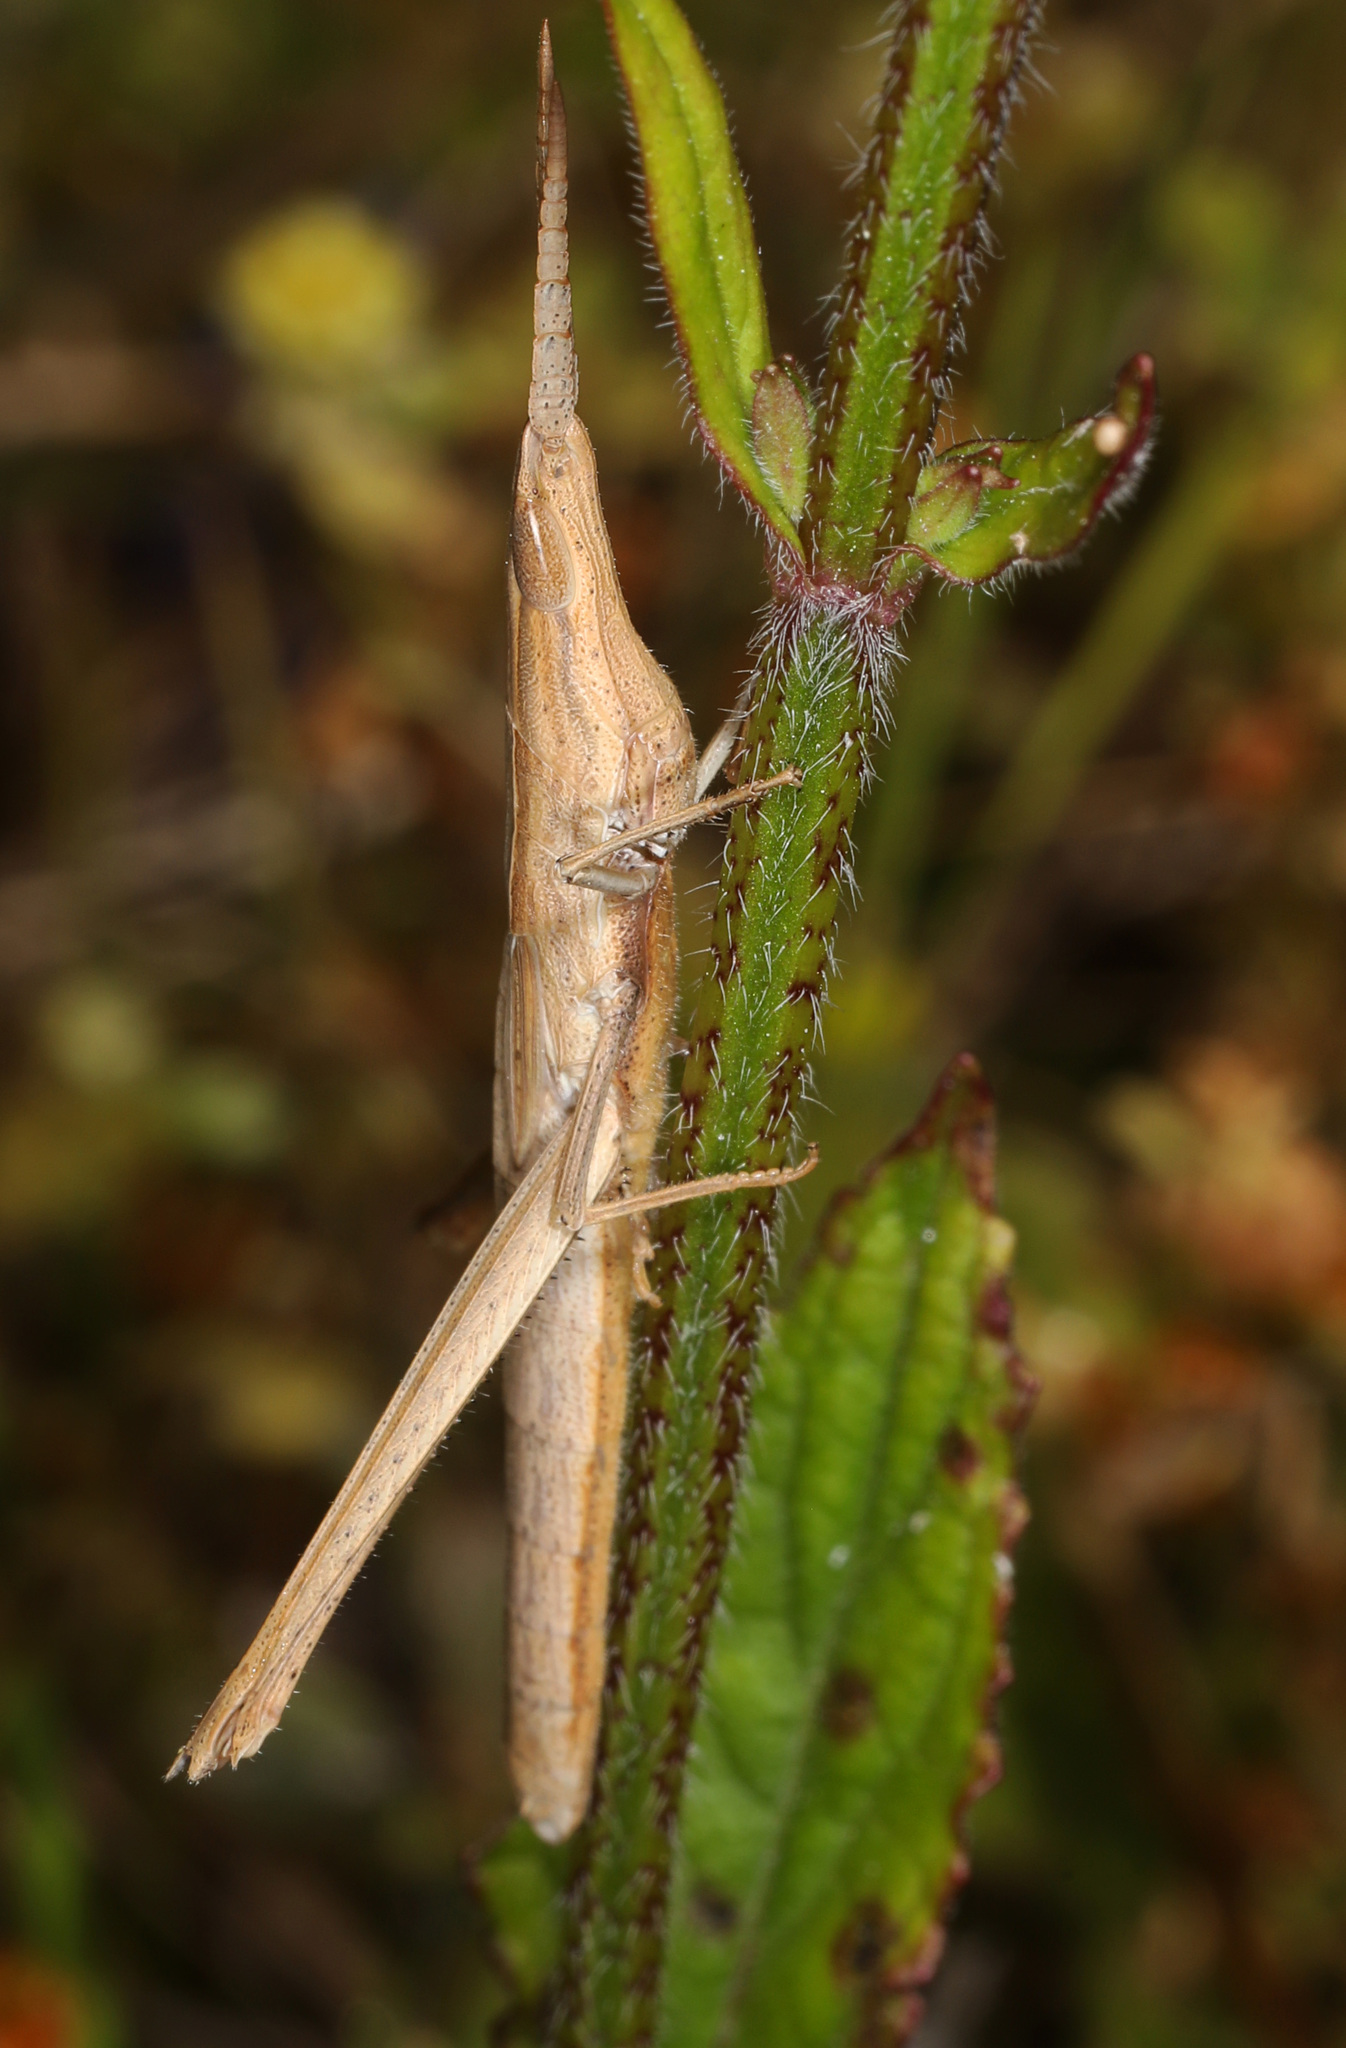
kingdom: Animalia
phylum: Arthropoda
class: Insecta
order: Orthoptera
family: Acrididae
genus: Achurum
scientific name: Achurum carinatum
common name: Long-headed toothpick grasshopper
